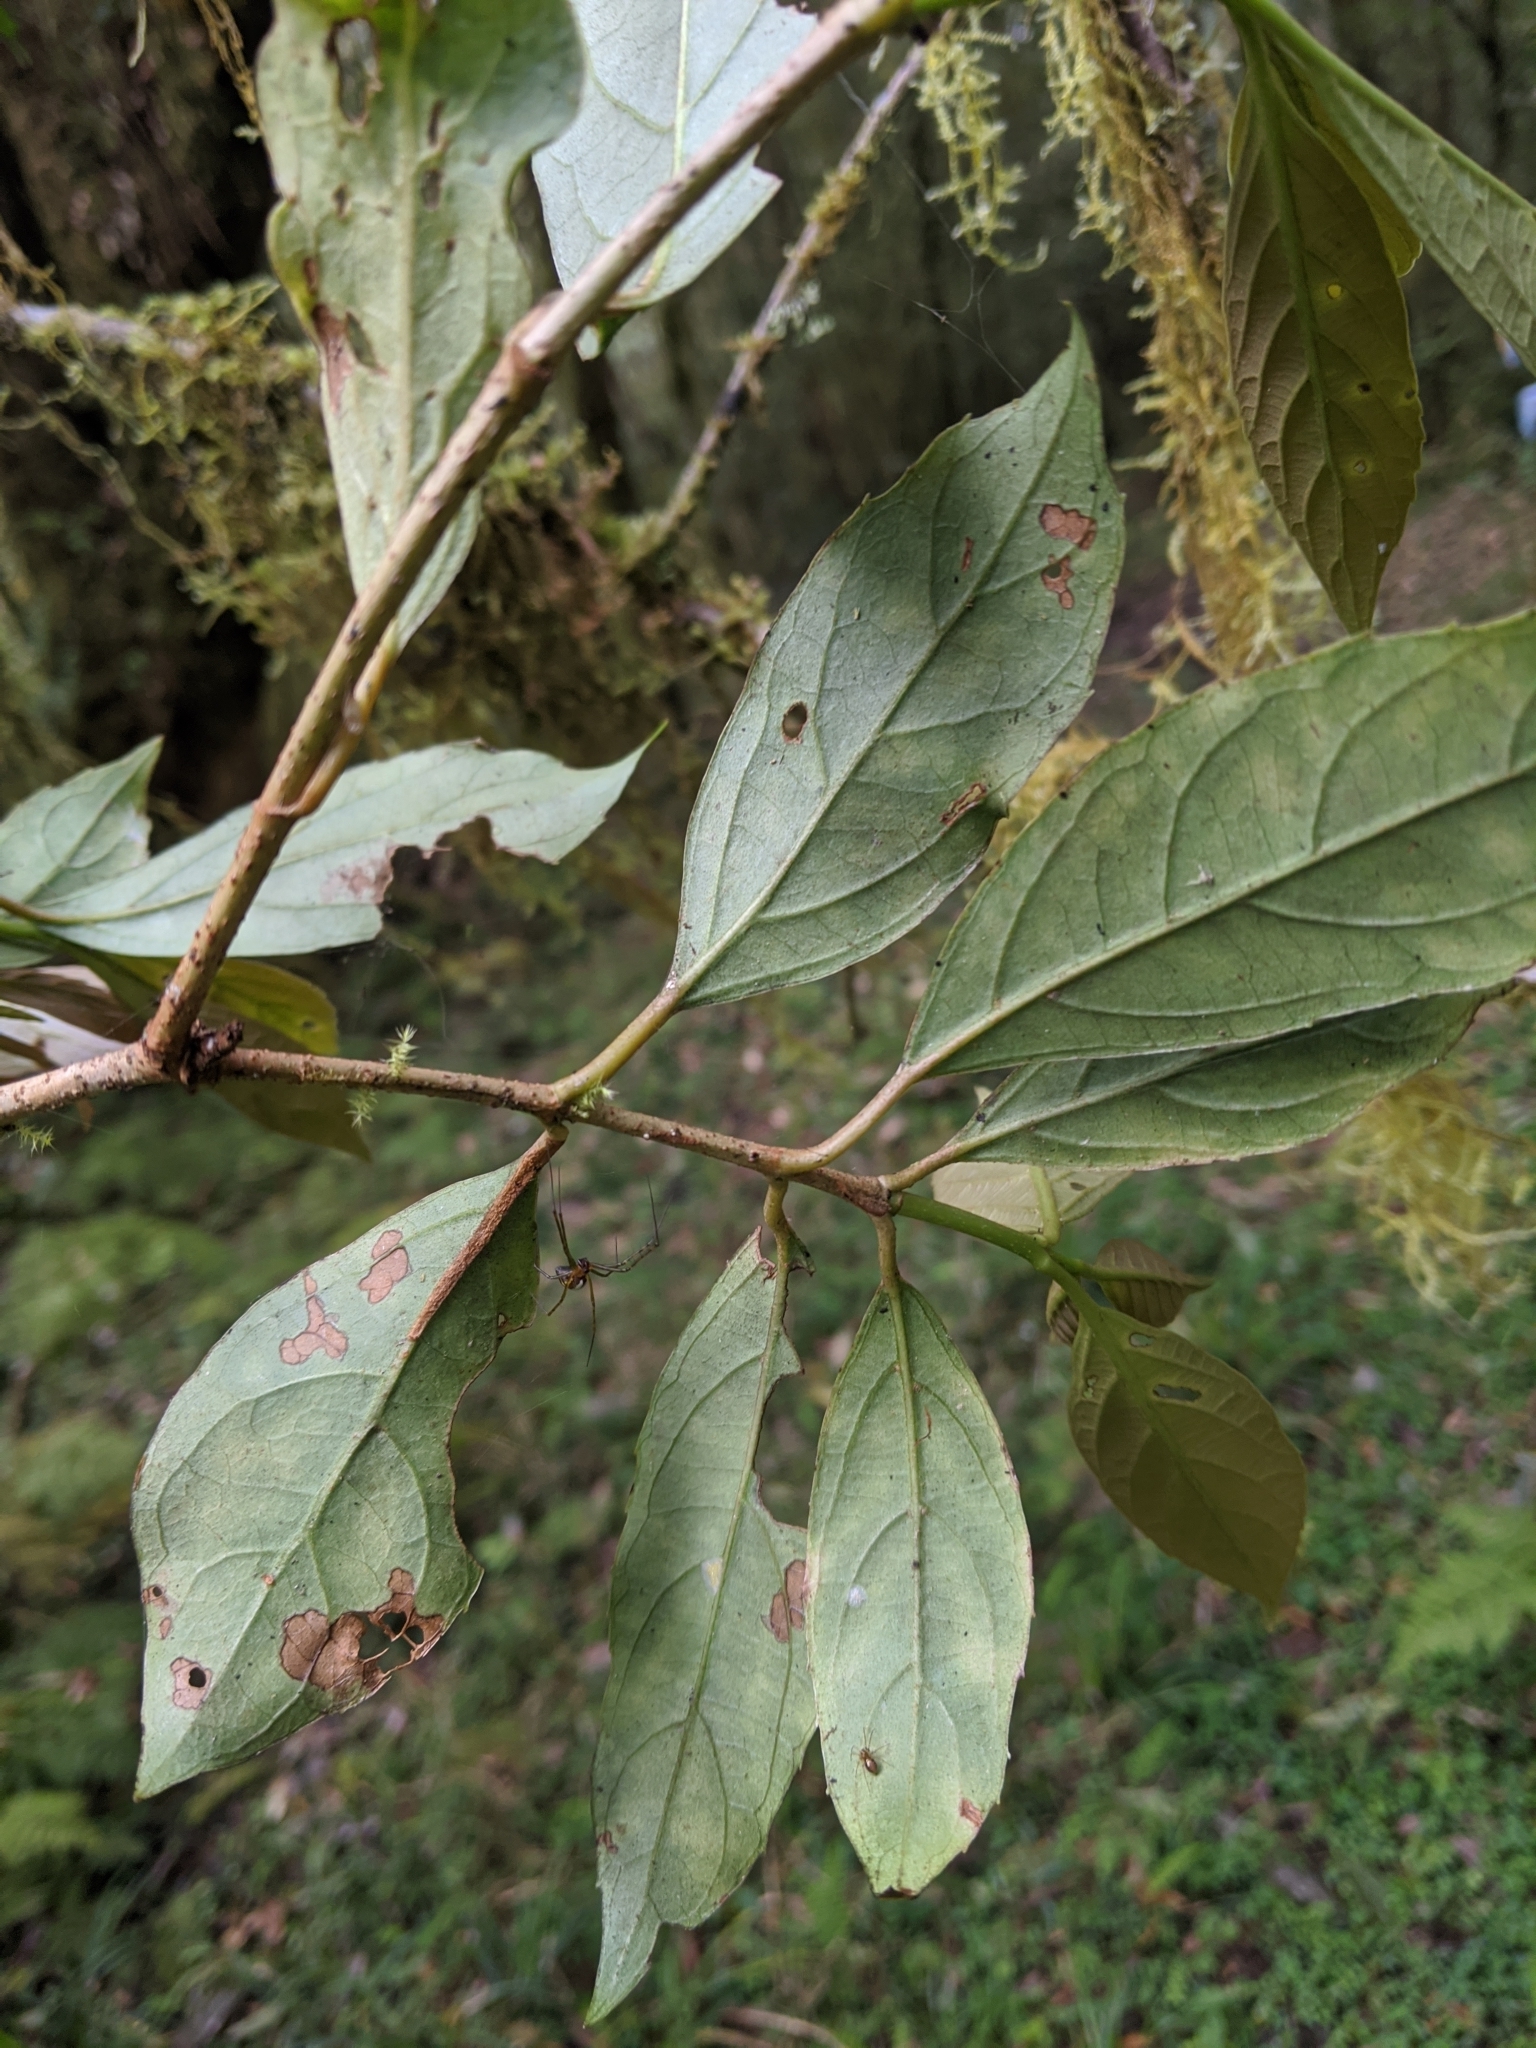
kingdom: Plantae
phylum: Tracheophyta
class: Magnoliopsida
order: Dipsacales
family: Viburnaceae
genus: Viburnum
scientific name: Viburnum odoratissimum
